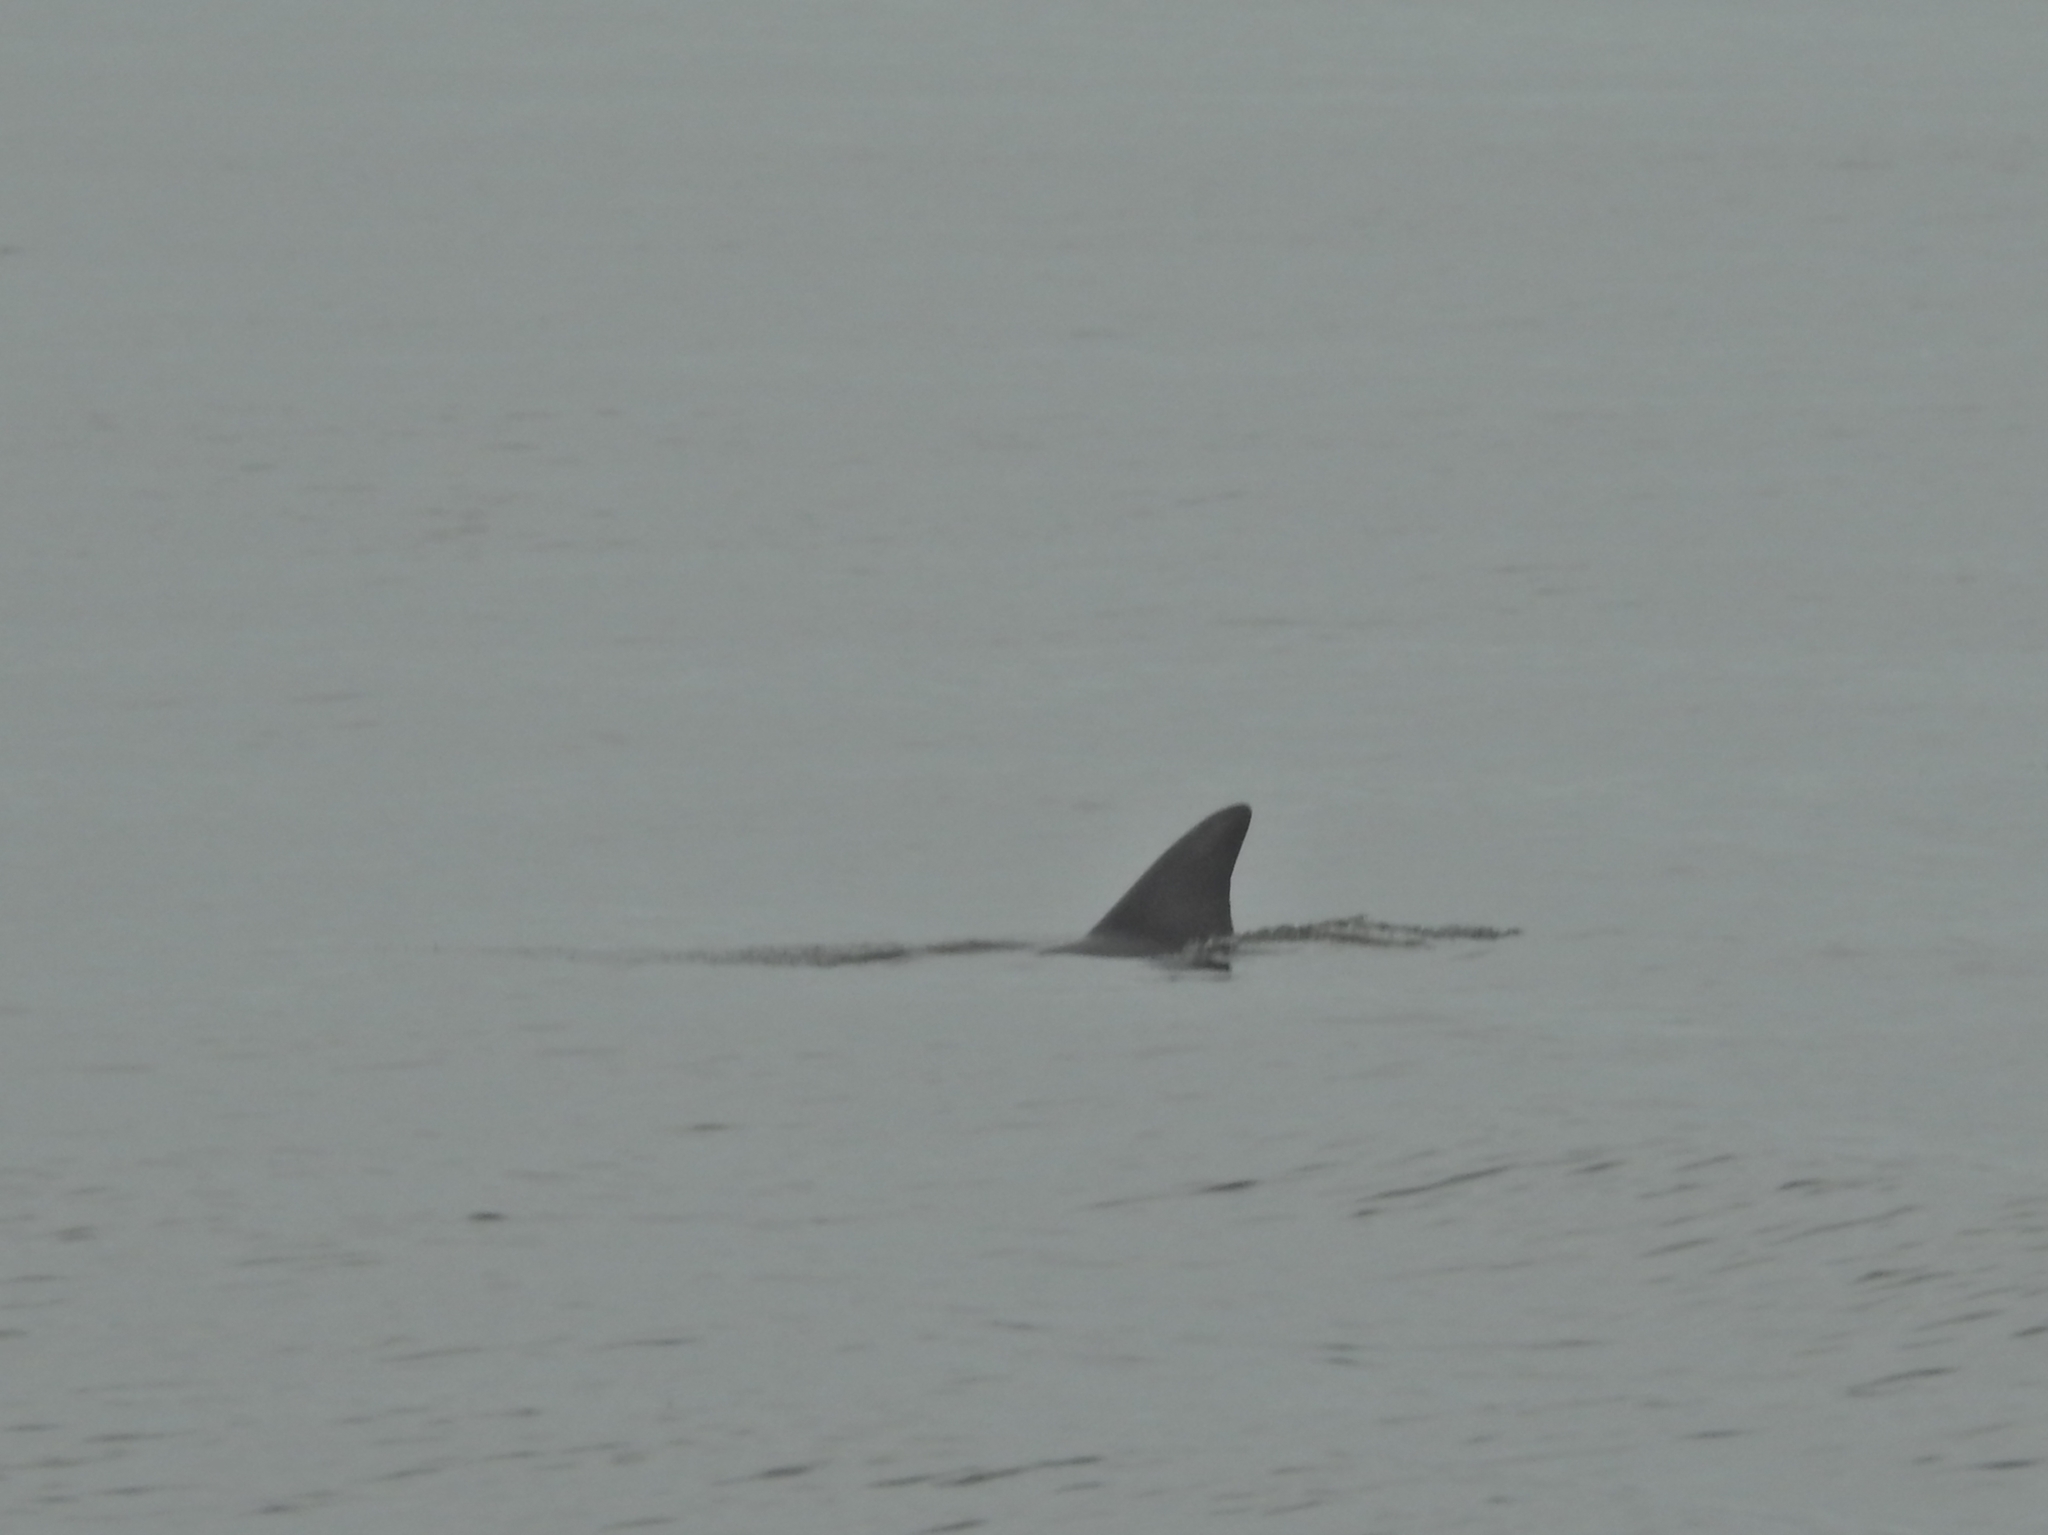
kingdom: Animalia
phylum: Chordata
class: Mammalia
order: Cetacea
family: Delphinidae
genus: Tursiops
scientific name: Tursiops aduncus
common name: Indo-pacific bottlenose dolphin
